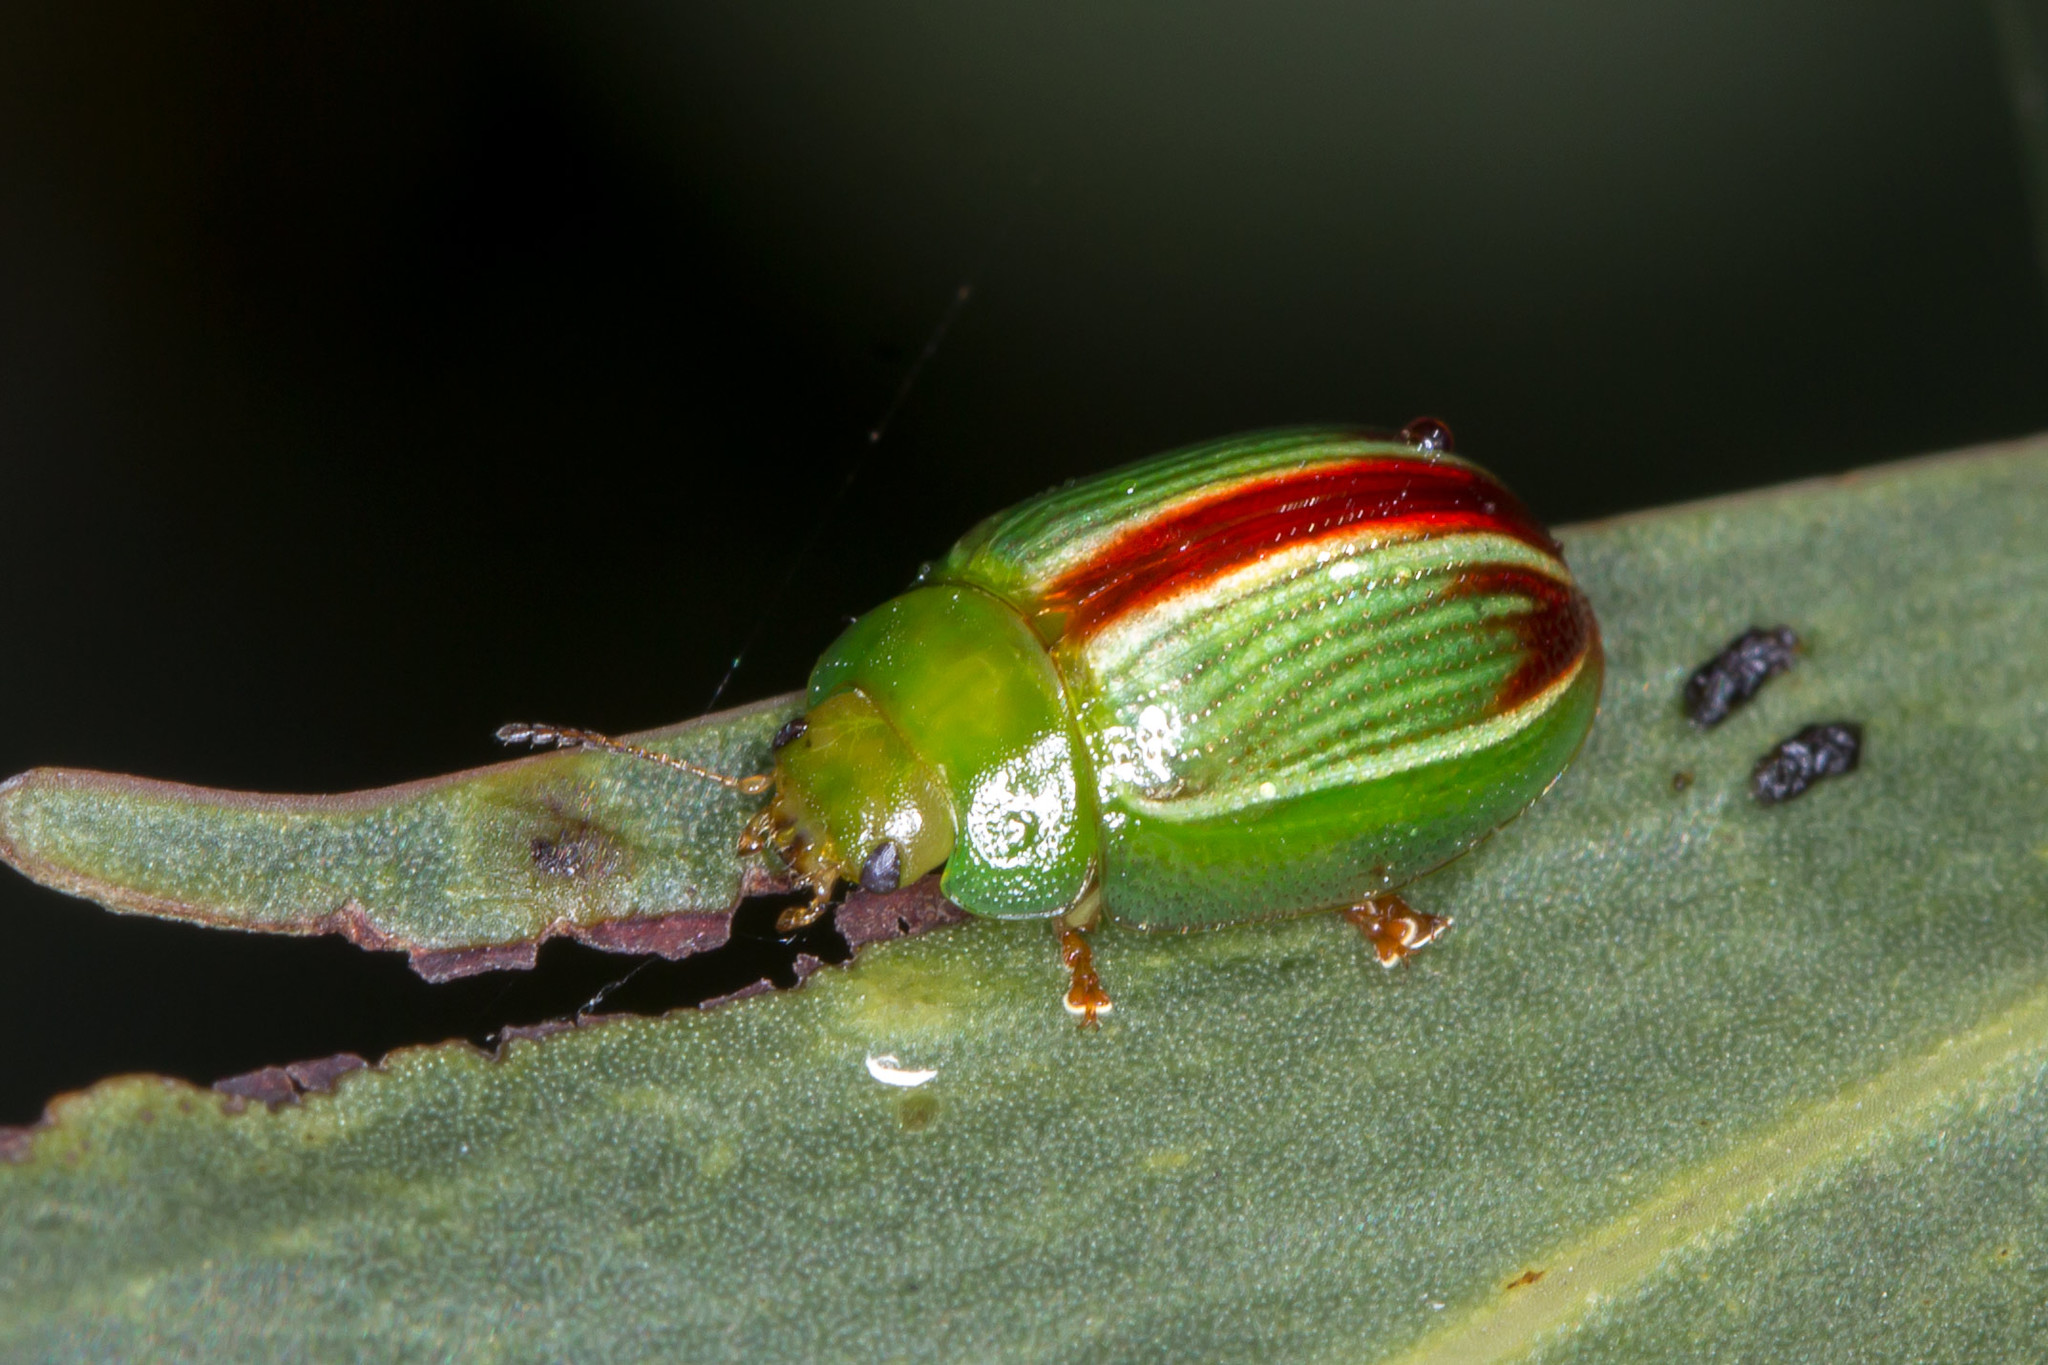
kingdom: Animalia
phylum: Arthropoda
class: Insecta
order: Coleoptera
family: Chrysomelidae
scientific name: Chrysomelidae
